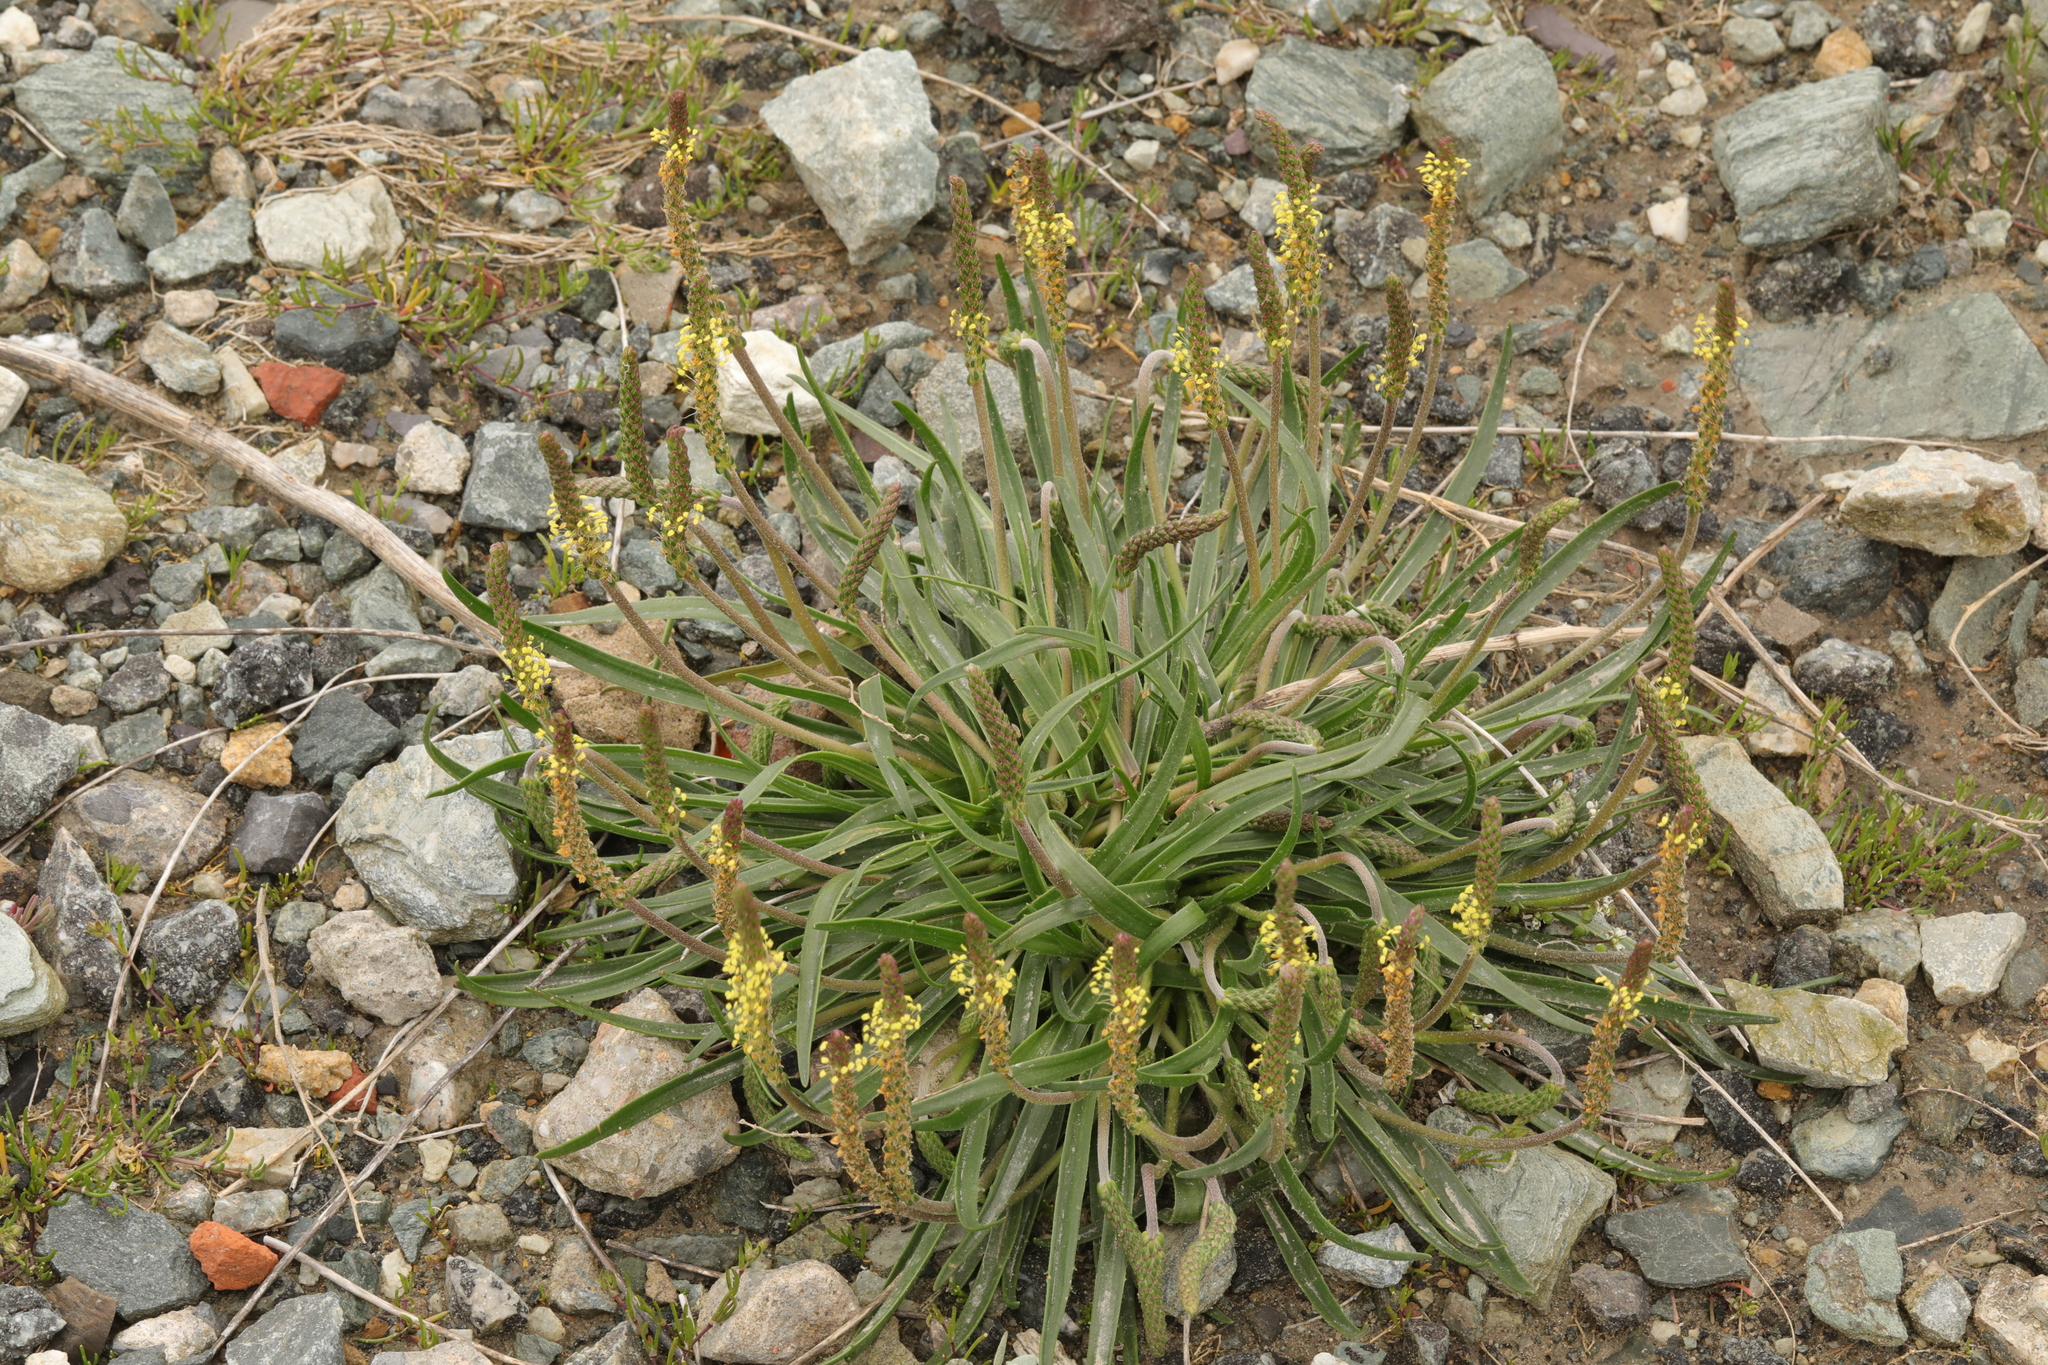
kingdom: Plantae
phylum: Tracheophyta
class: Magnoliopsida
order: Lamiales
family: Plantaginaceae
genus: Plantago
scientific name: Plantago maritima
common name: Sea plantain
